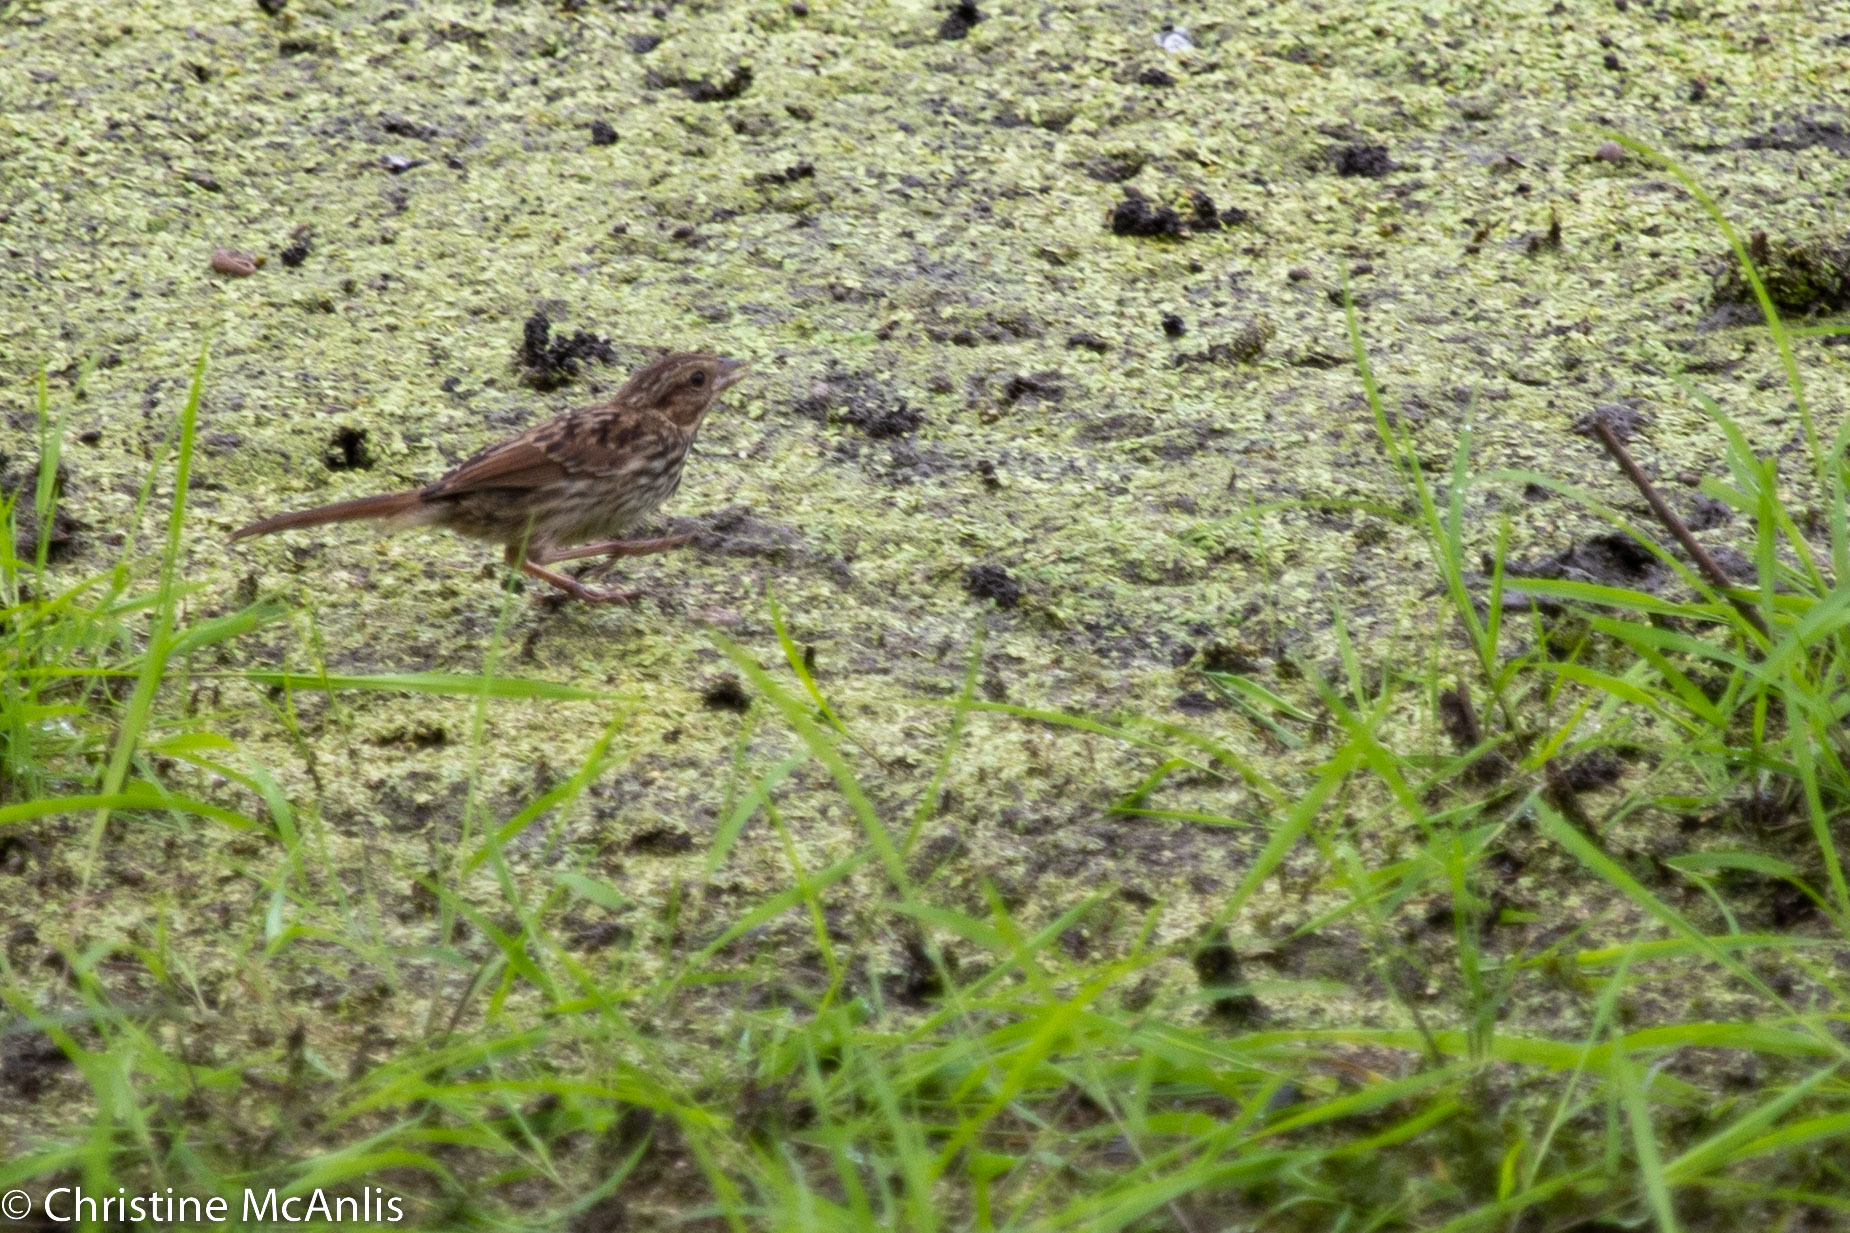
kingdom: Animalia
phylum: Chordata
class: Aves
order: Passeriformes
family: Passerellidae
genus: Melospiza
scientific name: Melospiza melodia
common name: Song sparrow
